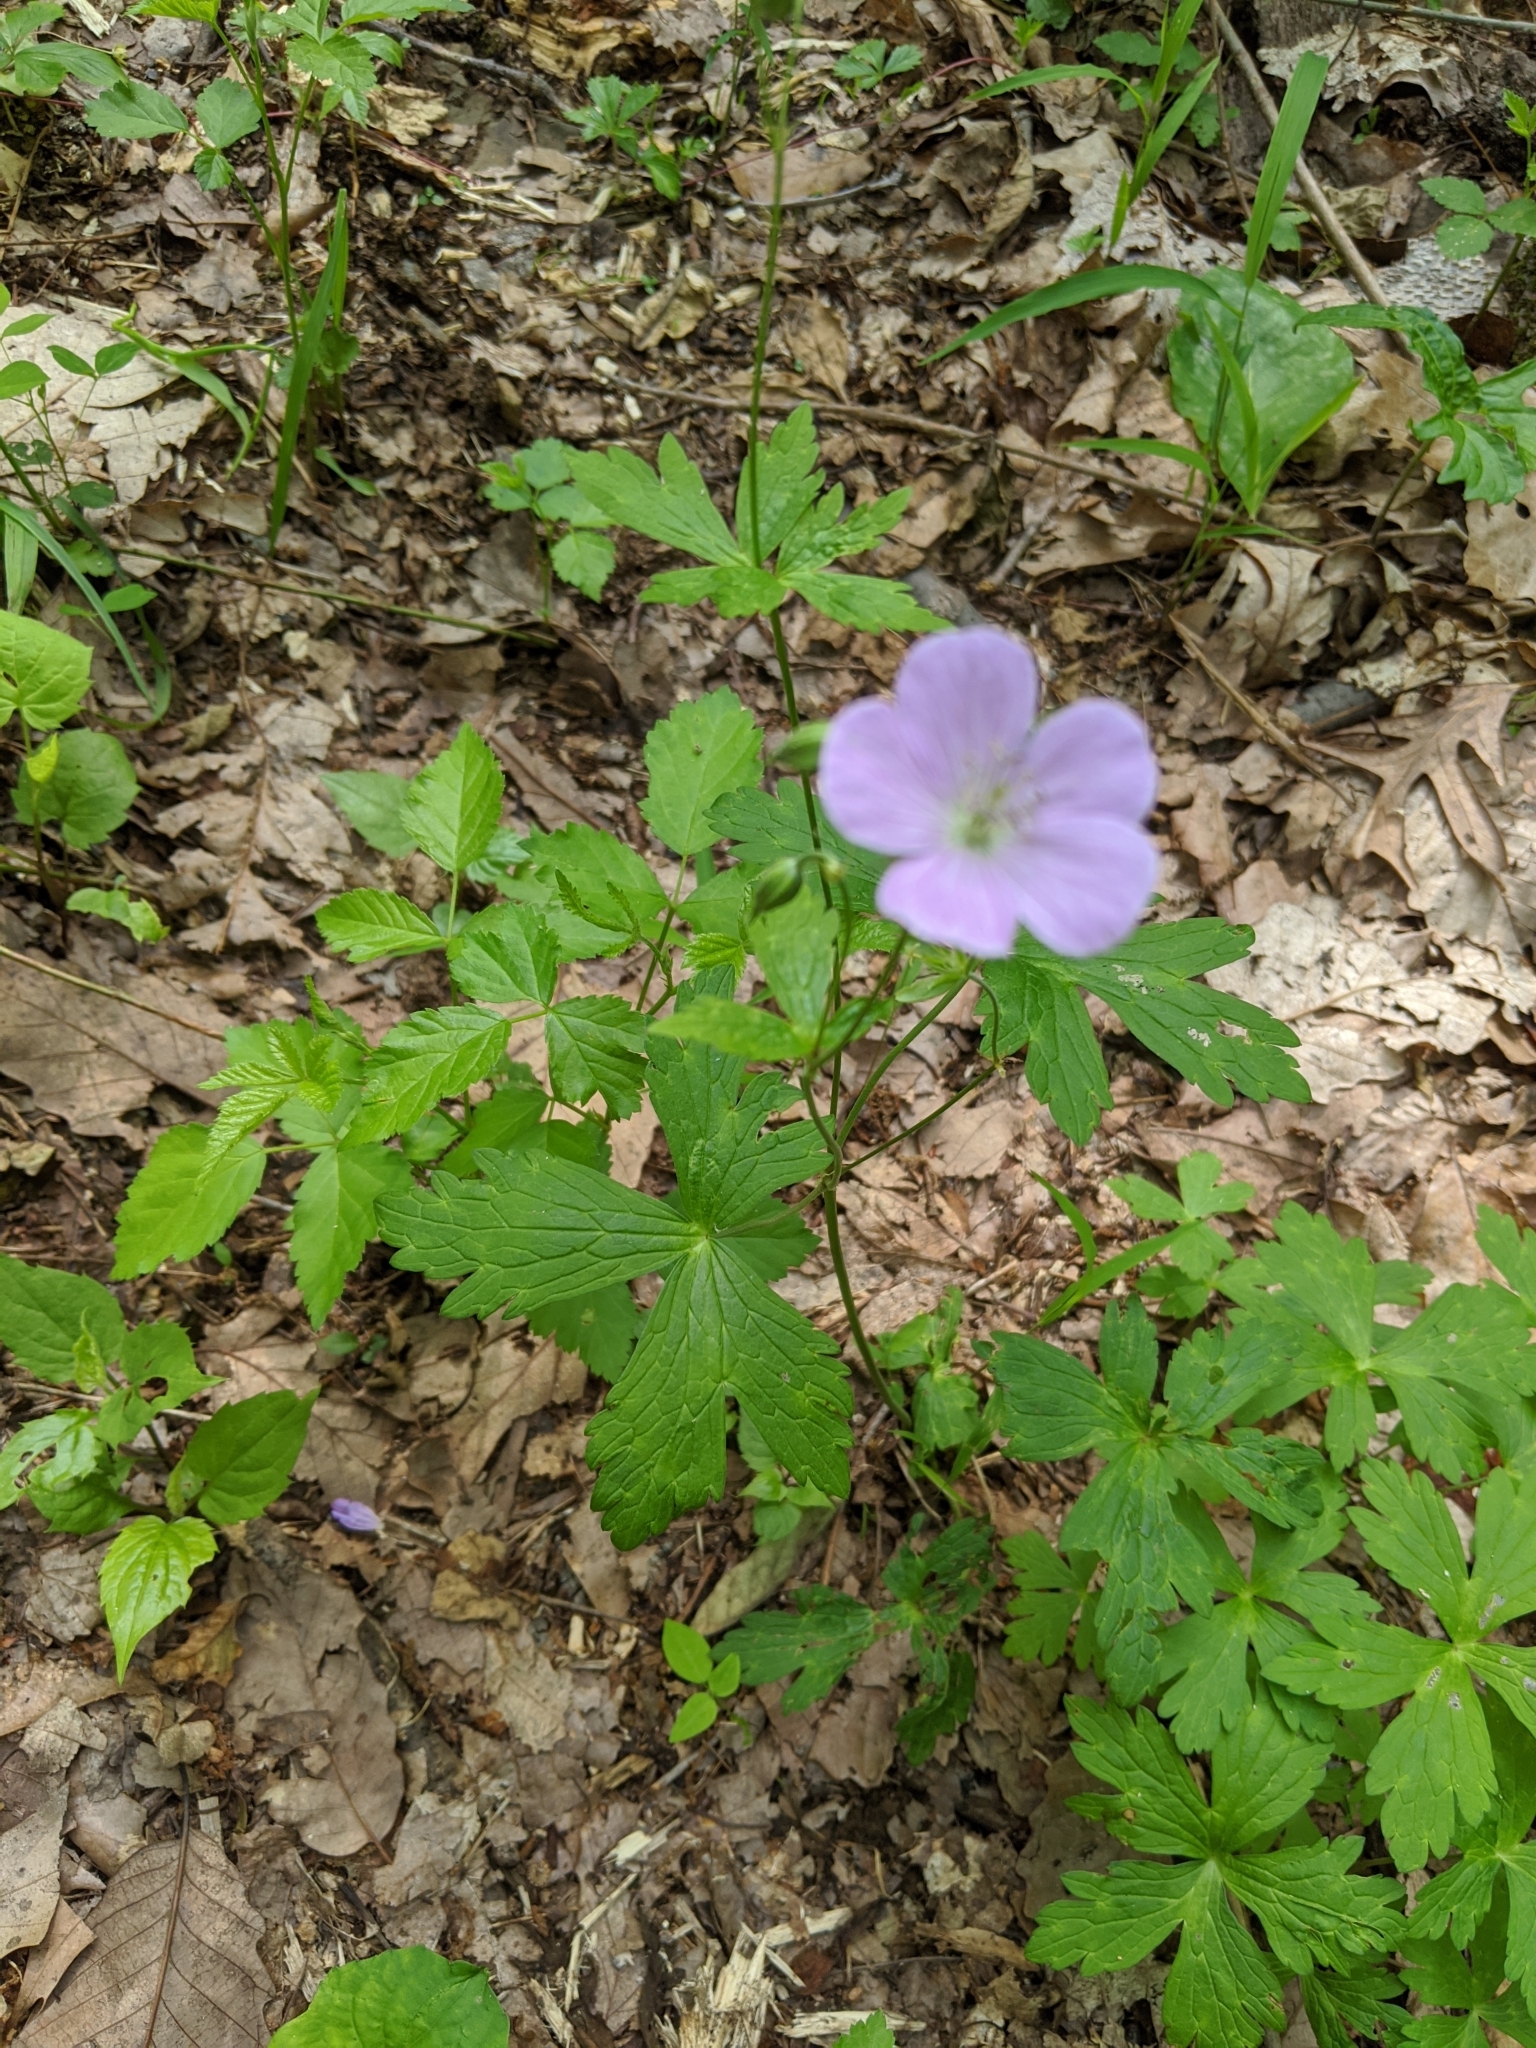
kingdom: Plantae
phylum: Tracheophyta
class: Magnoliopsida
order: Geraniales
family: Geraniaceae
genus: Geranium
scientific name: Geranium maculatum
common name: Spotted geranium
